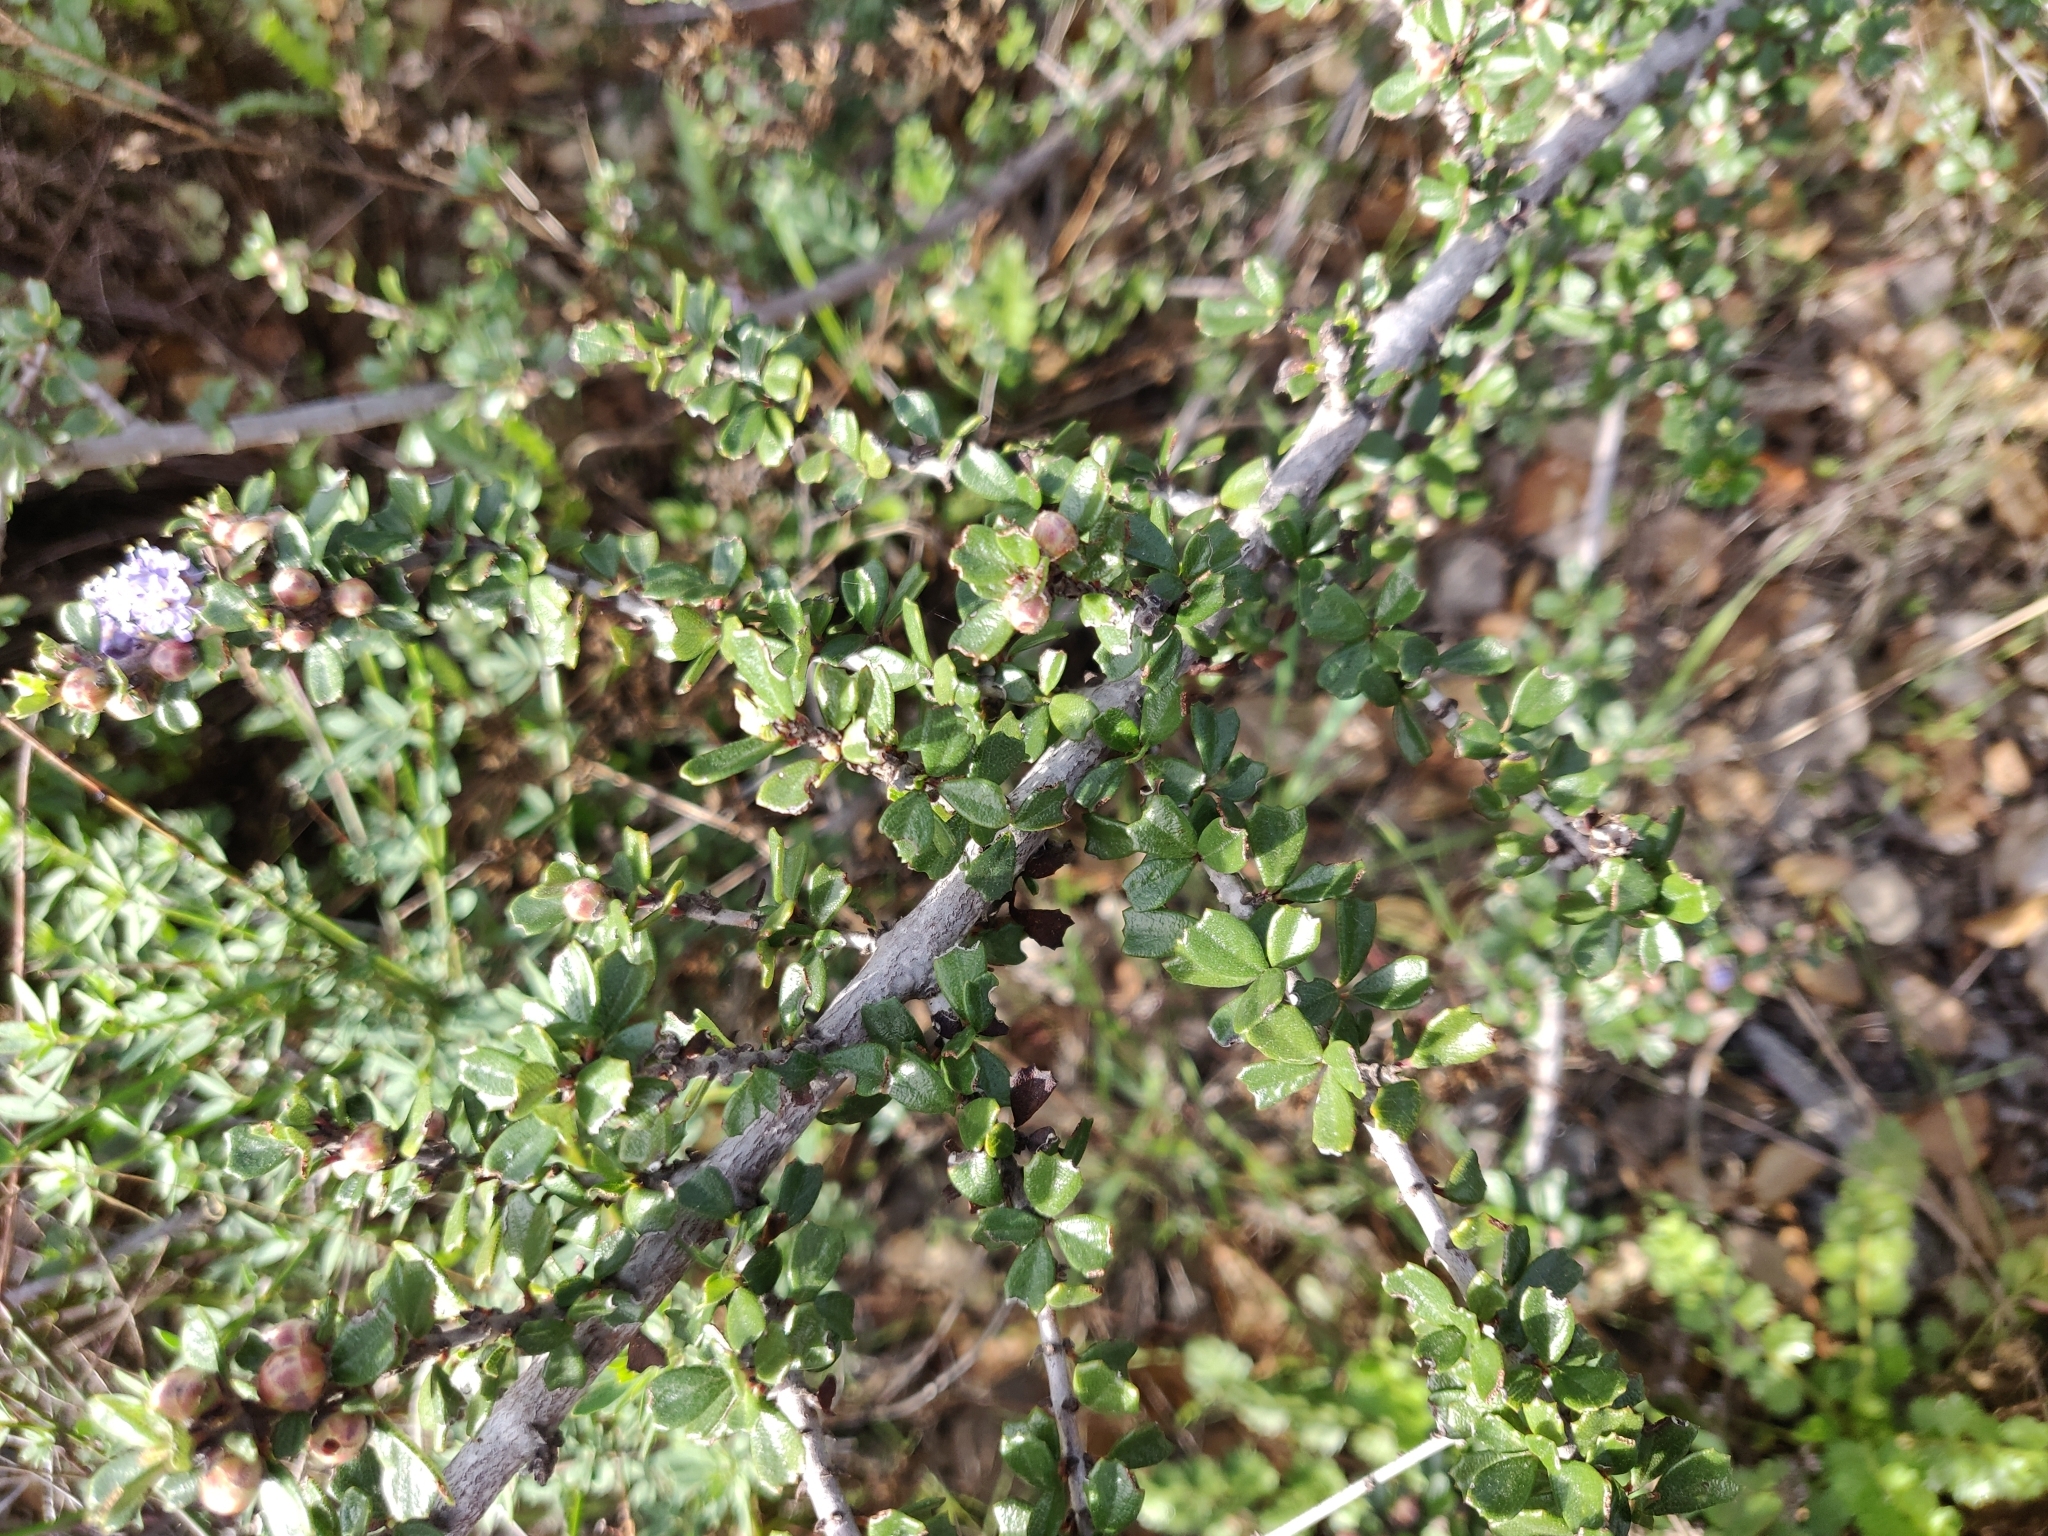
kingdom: Plantae
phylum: Tracheophyta
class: Magnoliopsida
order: Rosales
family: Rhamnaceae
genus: Ceanothus
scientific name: Ceanothus cuneatus
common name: Cuneate ceanothus
